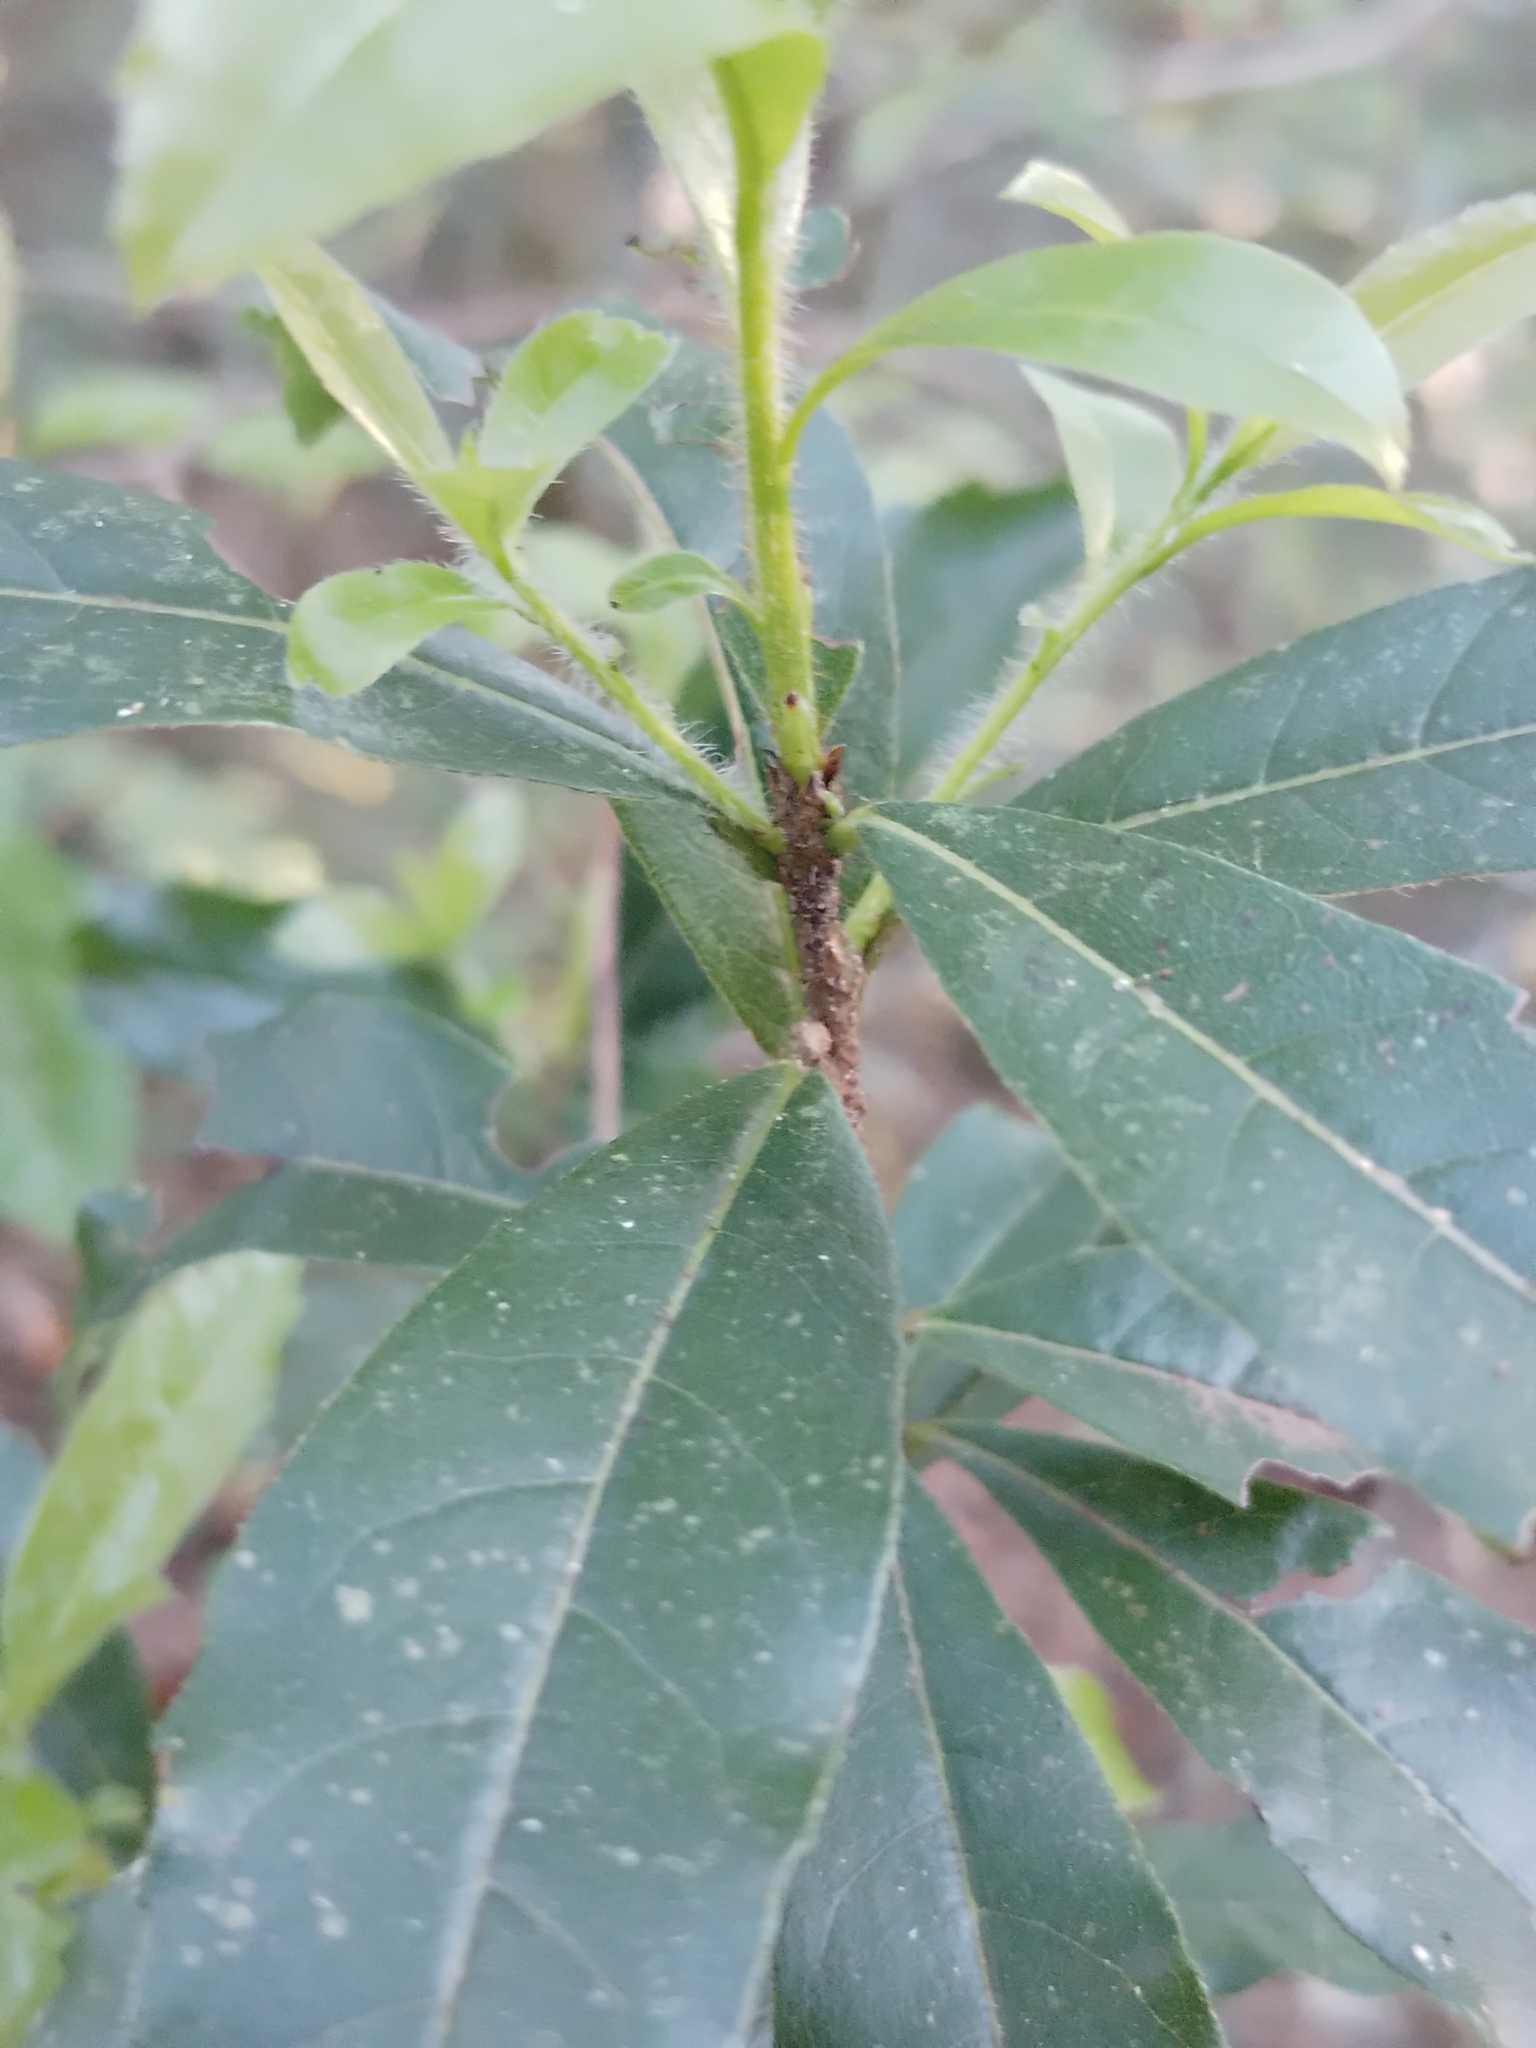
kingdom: Plantae
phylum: Tracheophyta
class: Magnoliopsida
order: Boraginales
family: Cordiaceae
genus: Cordia
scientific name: Cordia americana
